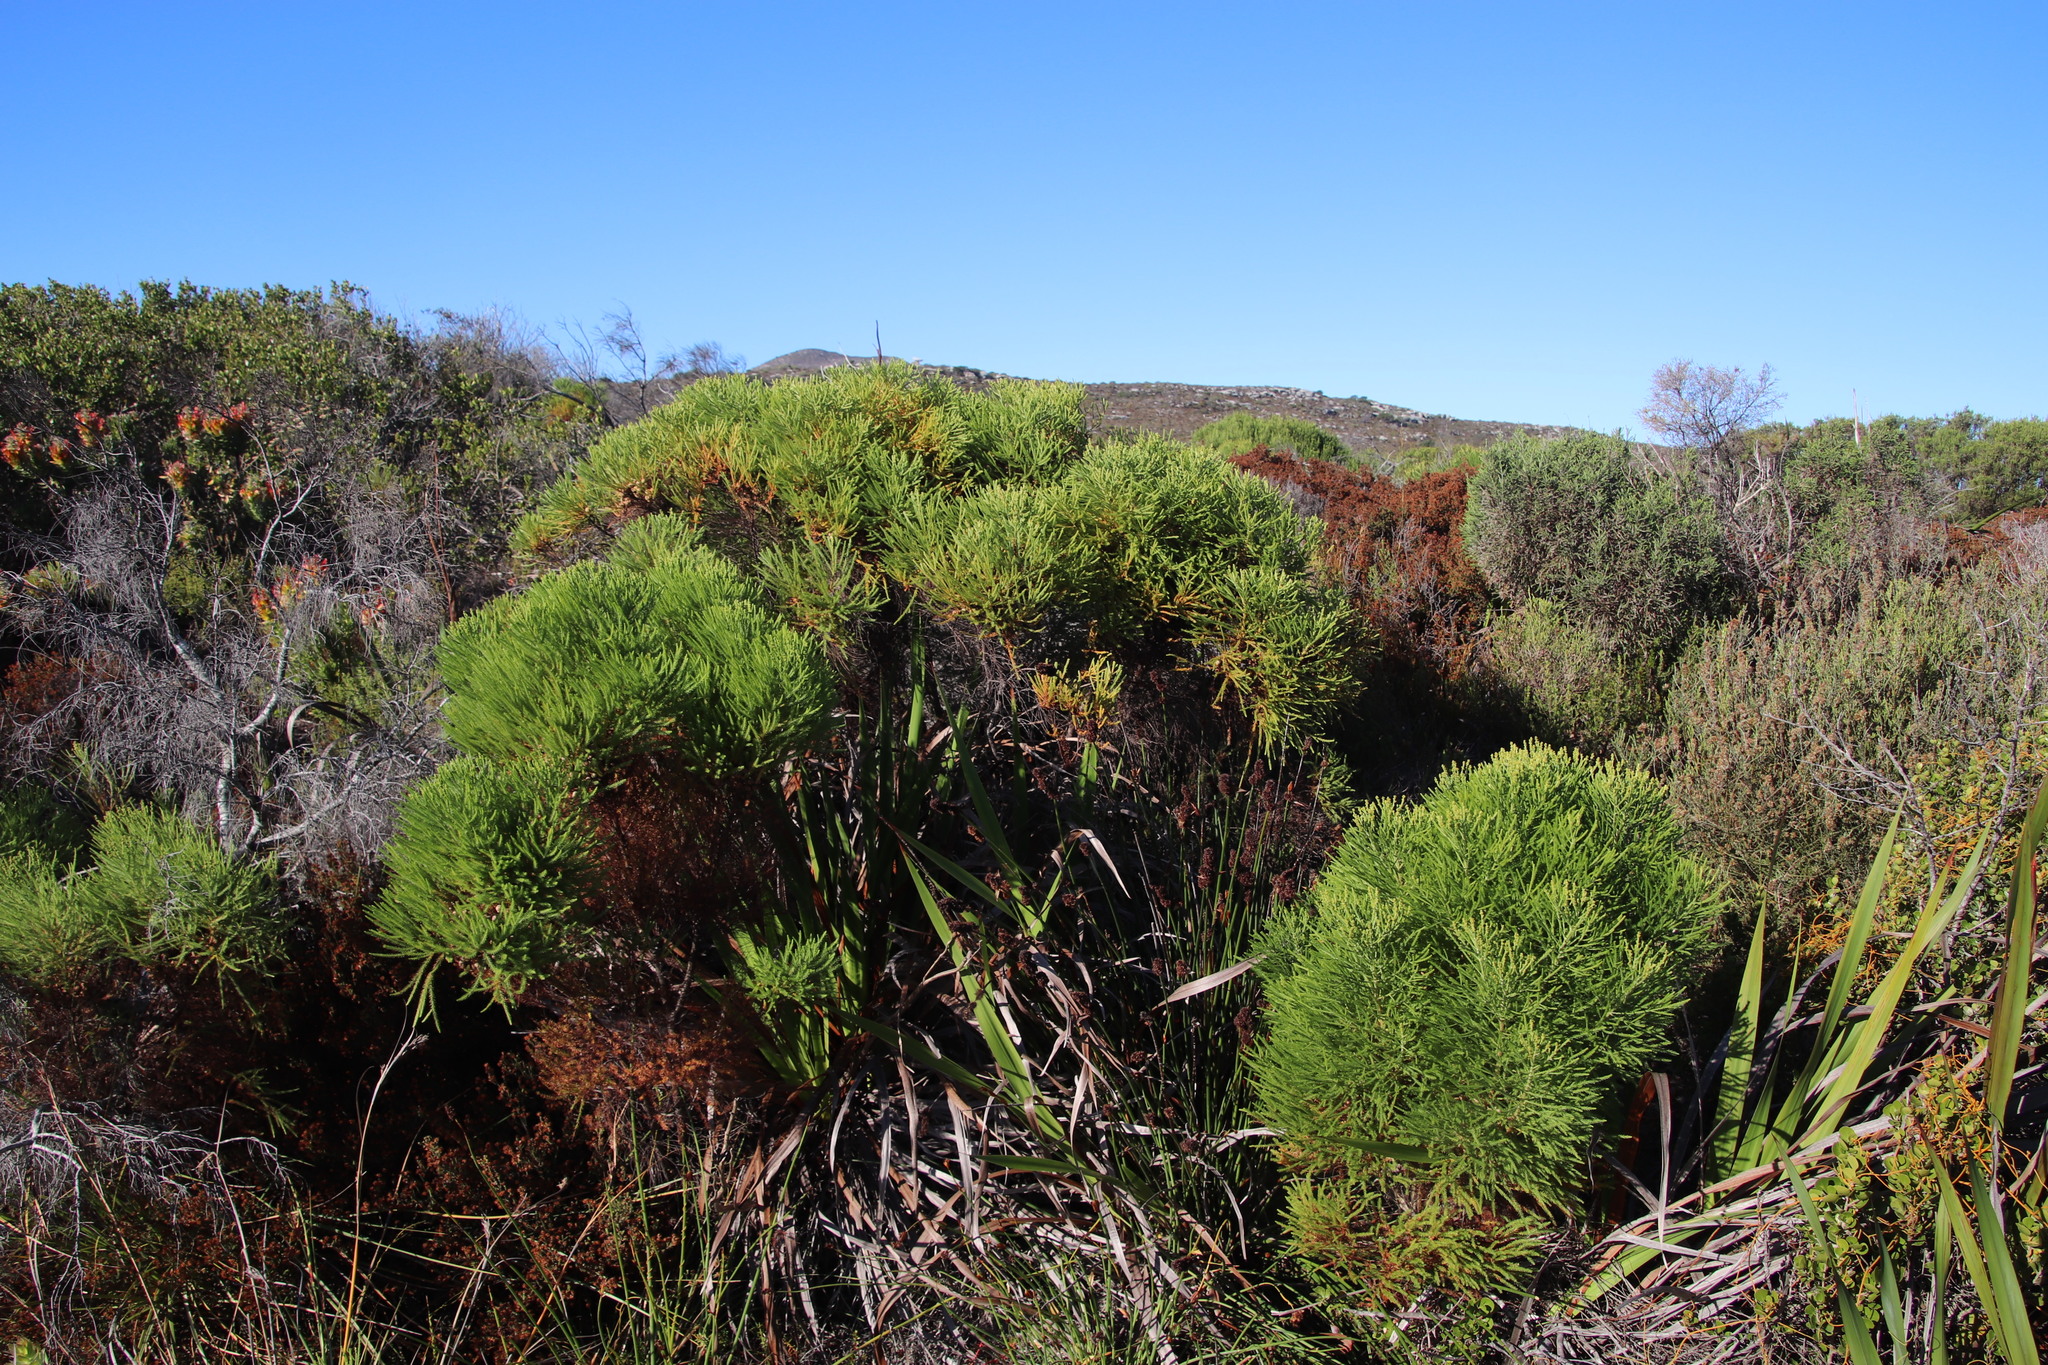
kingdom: Plantae
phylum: Tracheophyta
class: Magnoliopsida
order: Bruniales
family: Bruniaceae
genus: Berzelia
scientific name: Berzelia lanuginosa
